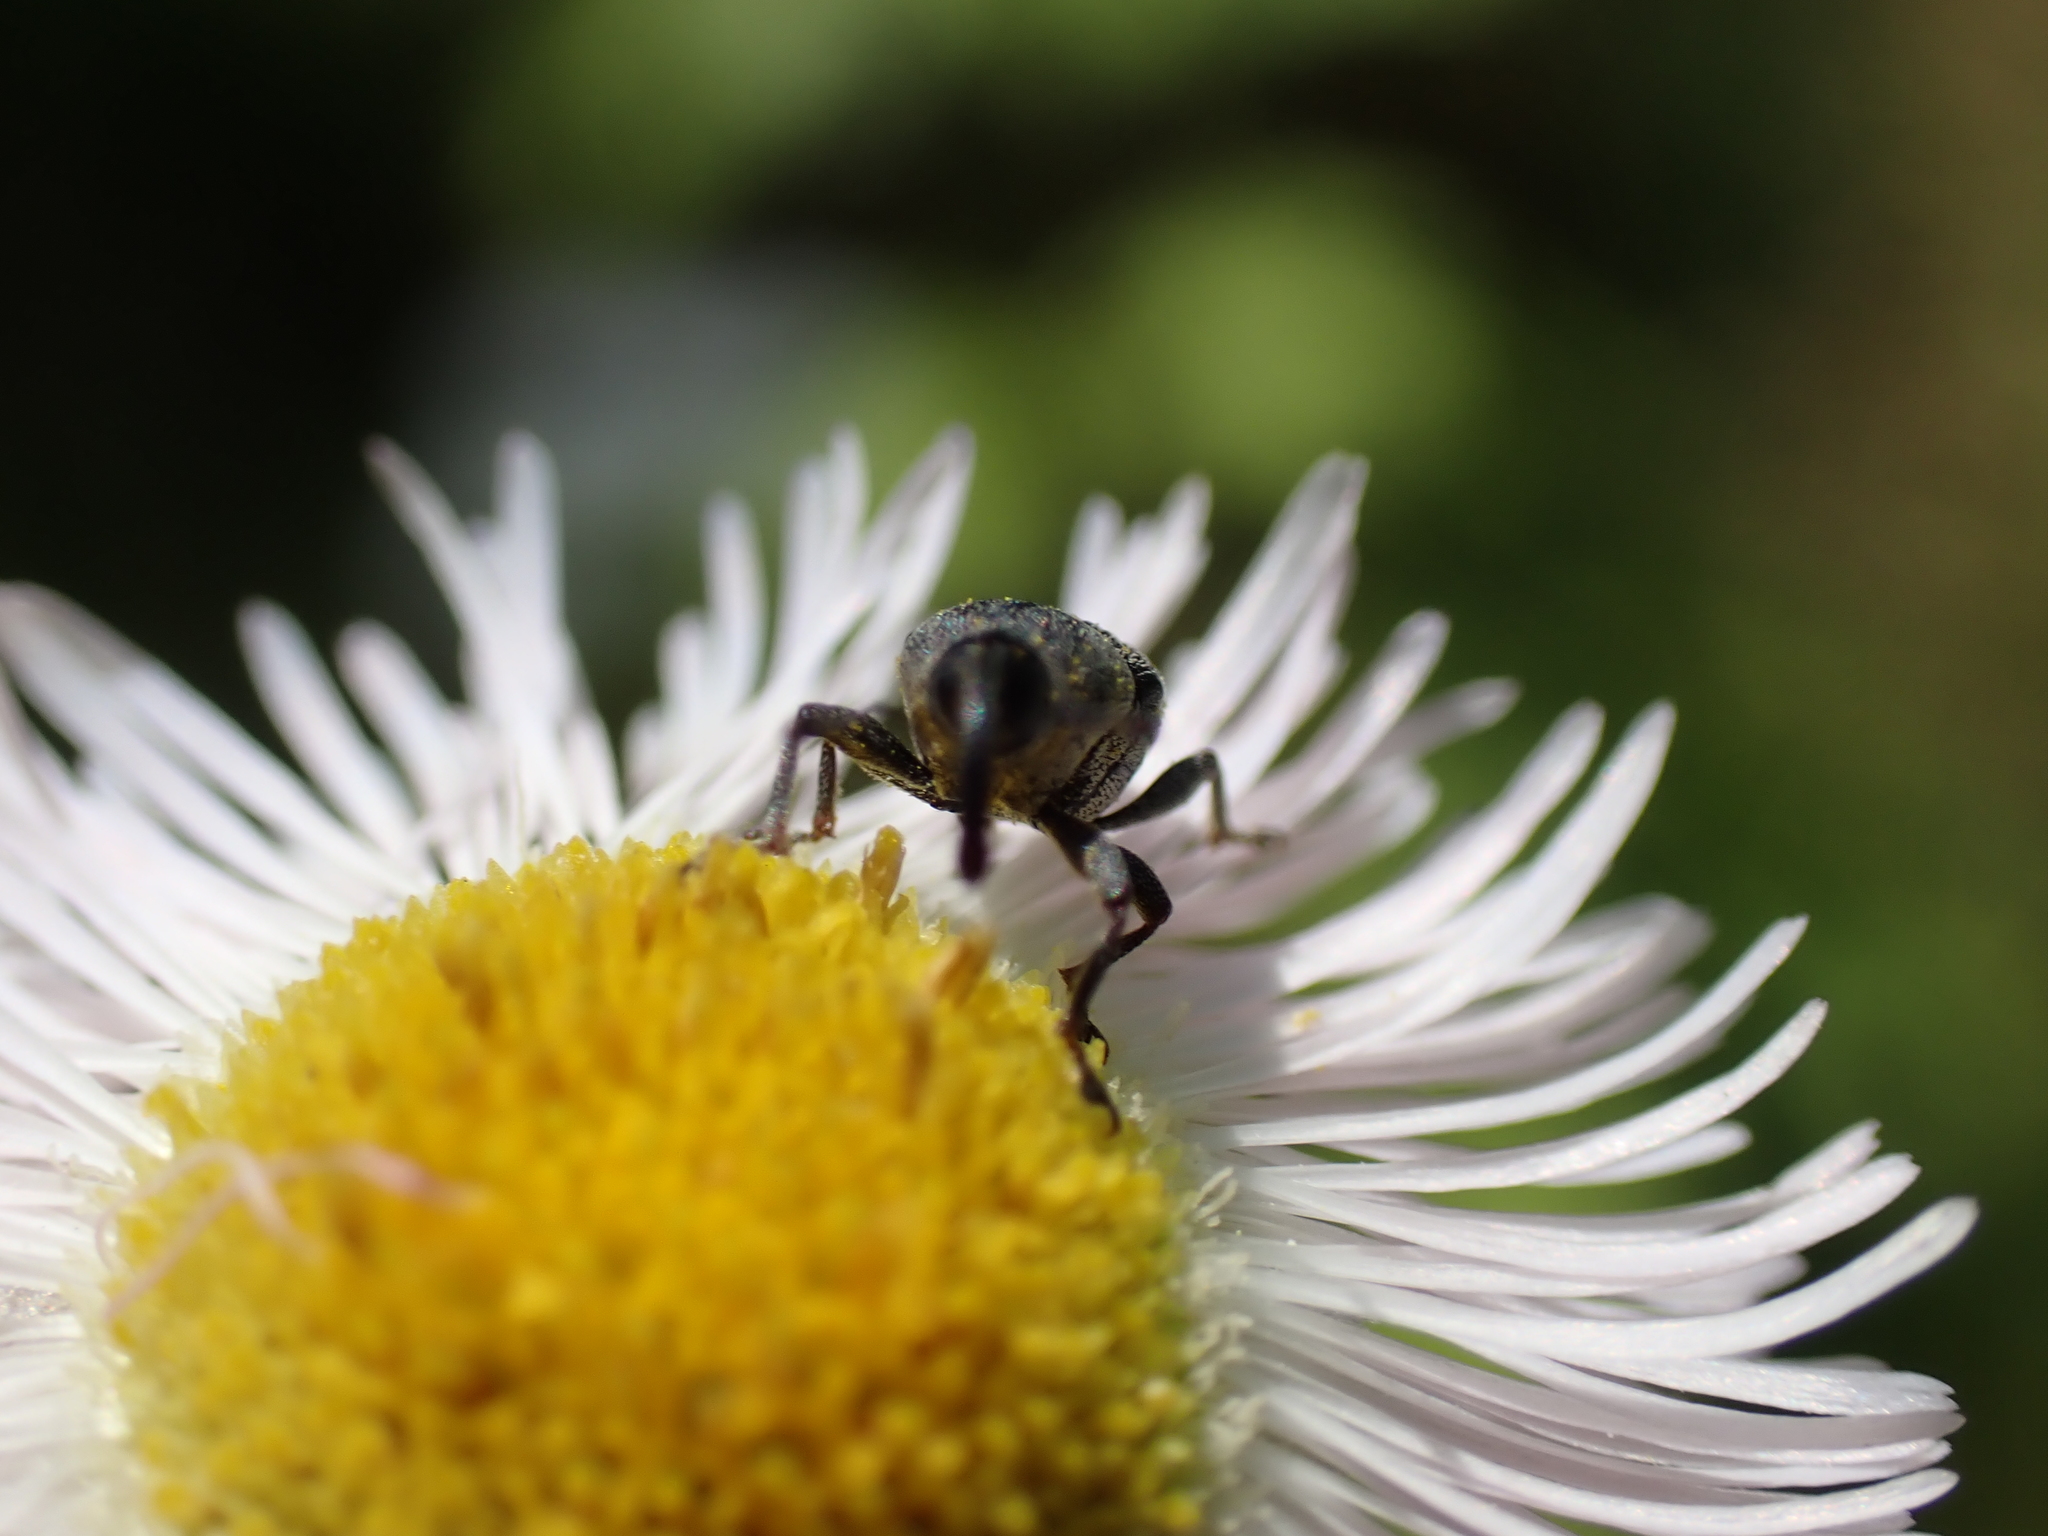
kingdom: Animalia
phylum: Arthropoda
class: Insecta
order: Coleoptera
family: Curculionidae
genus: Odontocorynus
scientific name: Odontocorynus salebrosus
